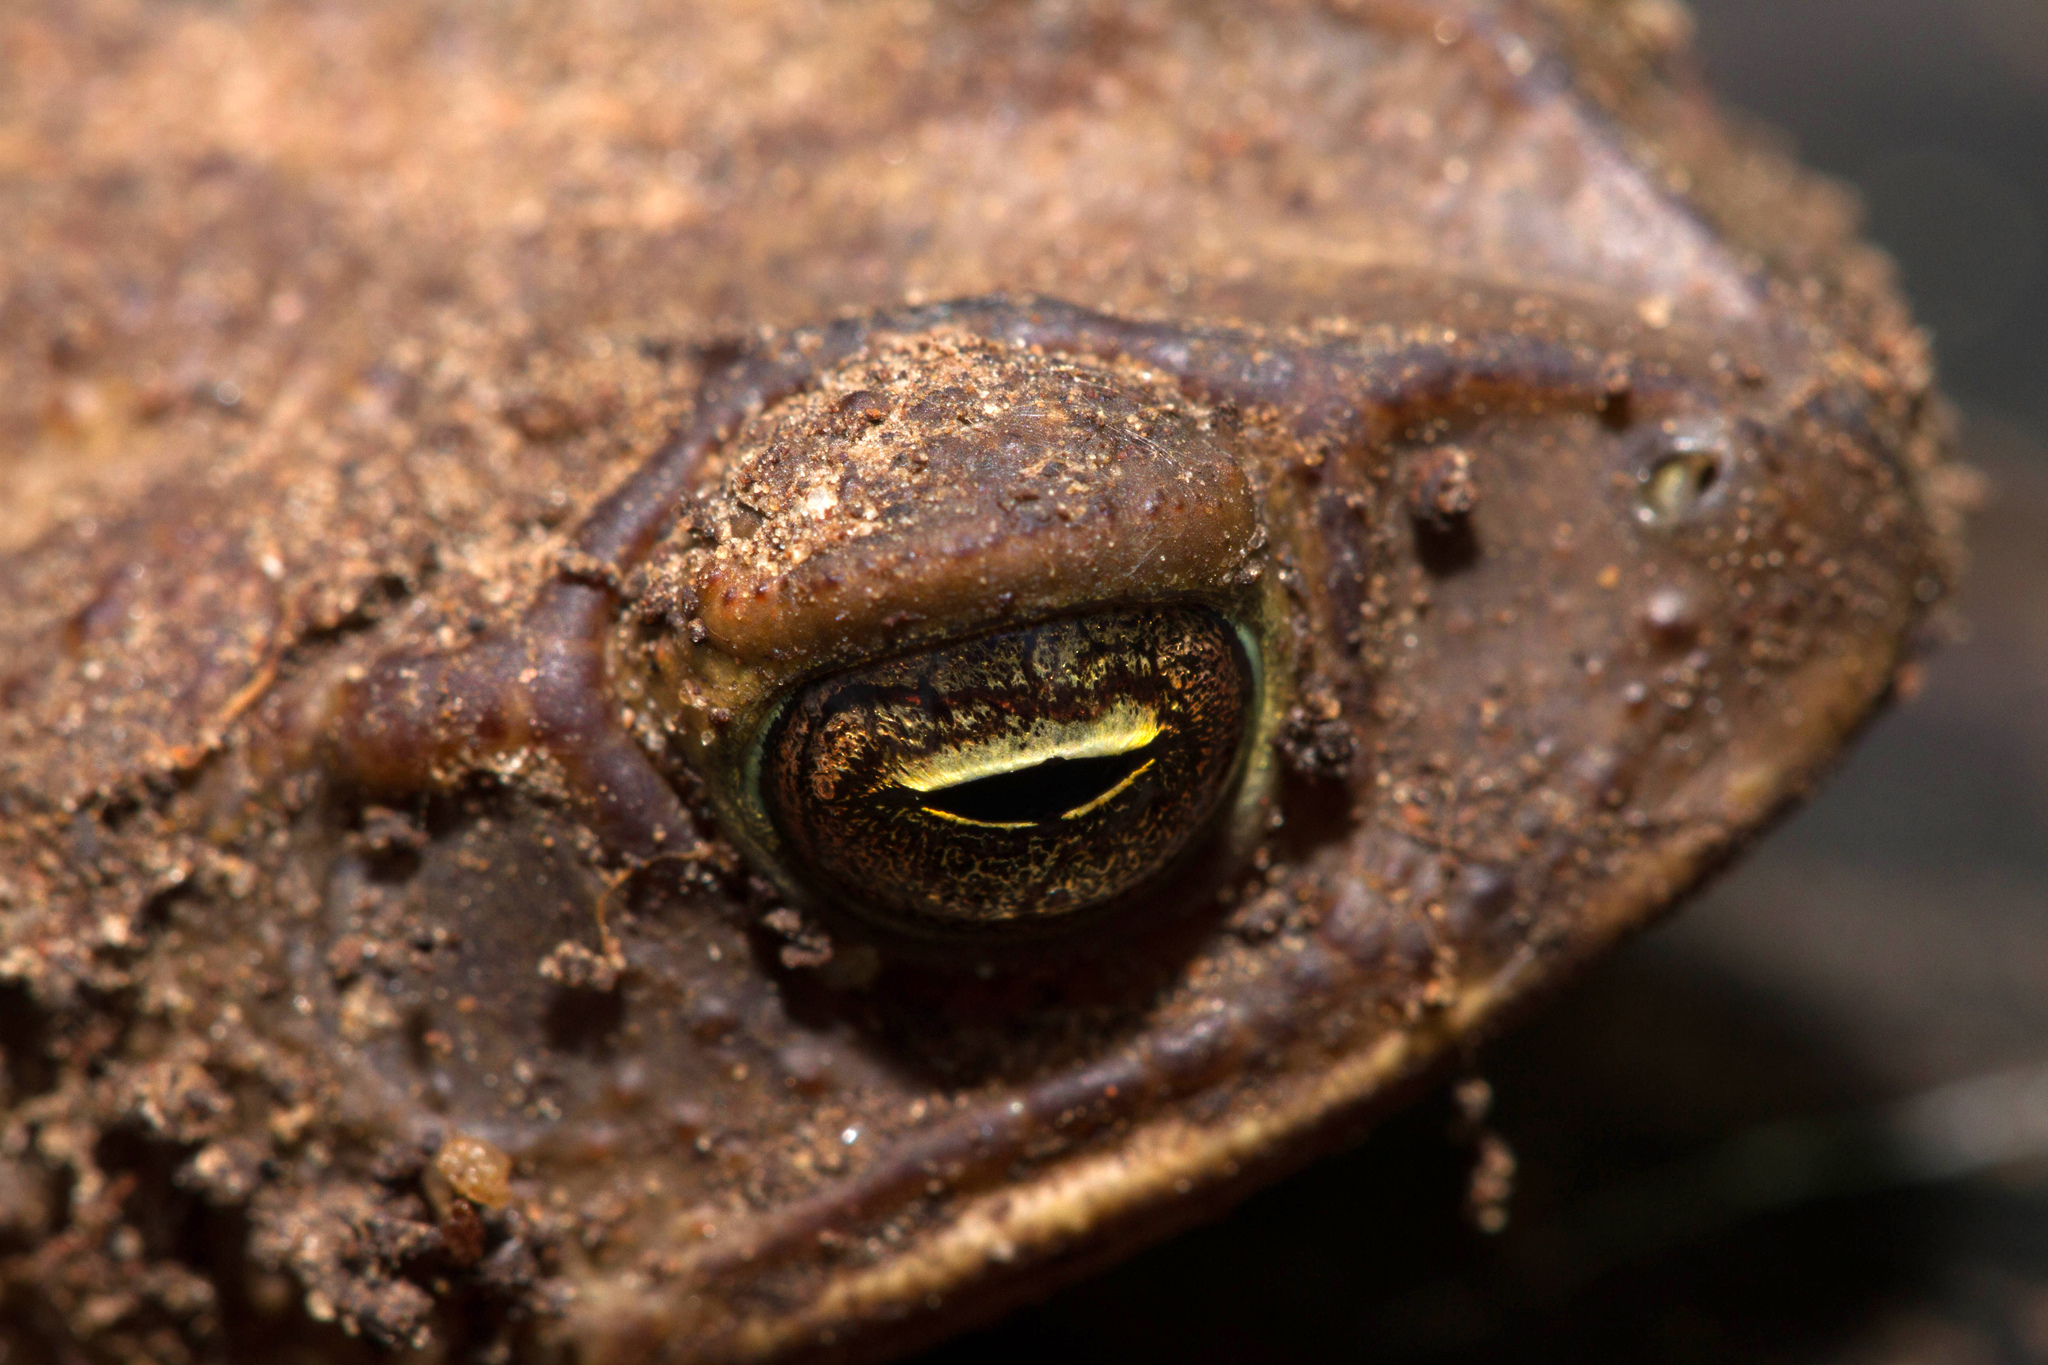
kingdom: Animalia
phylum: Chordata
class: Amphibia
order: Anura
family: Bufonidae
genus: Incilius
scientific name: Incilius nebulifer
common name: Gulf coast toad
